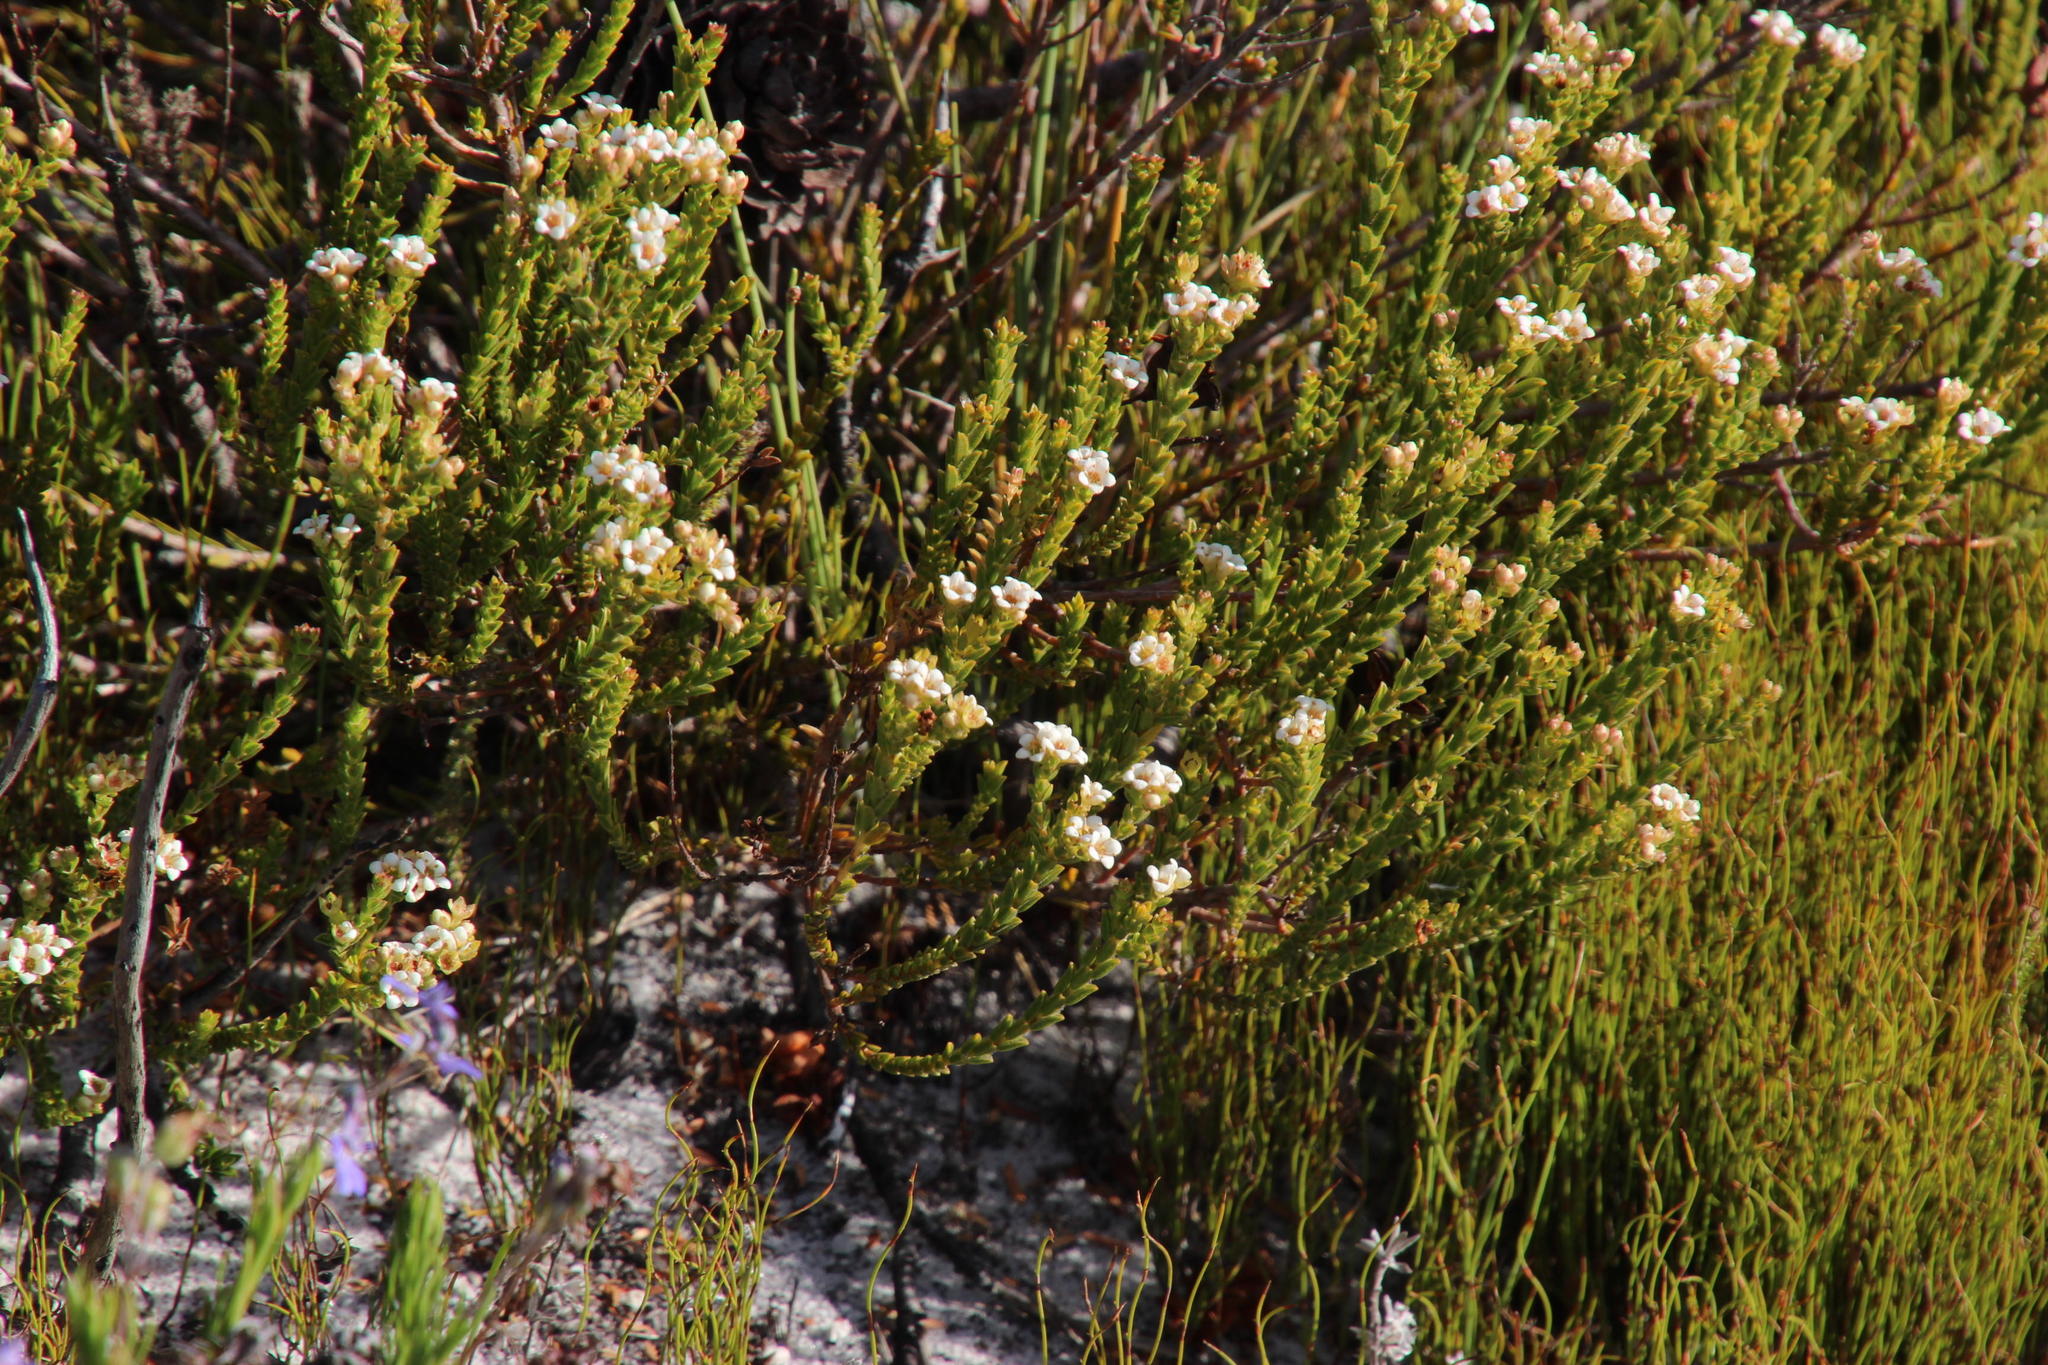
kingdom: Plantae
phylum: Tracheophyta
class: Magnoliopsida
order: Sapindales
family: Rutaceae
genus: Diosma
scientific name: Diosma oppositifolia
